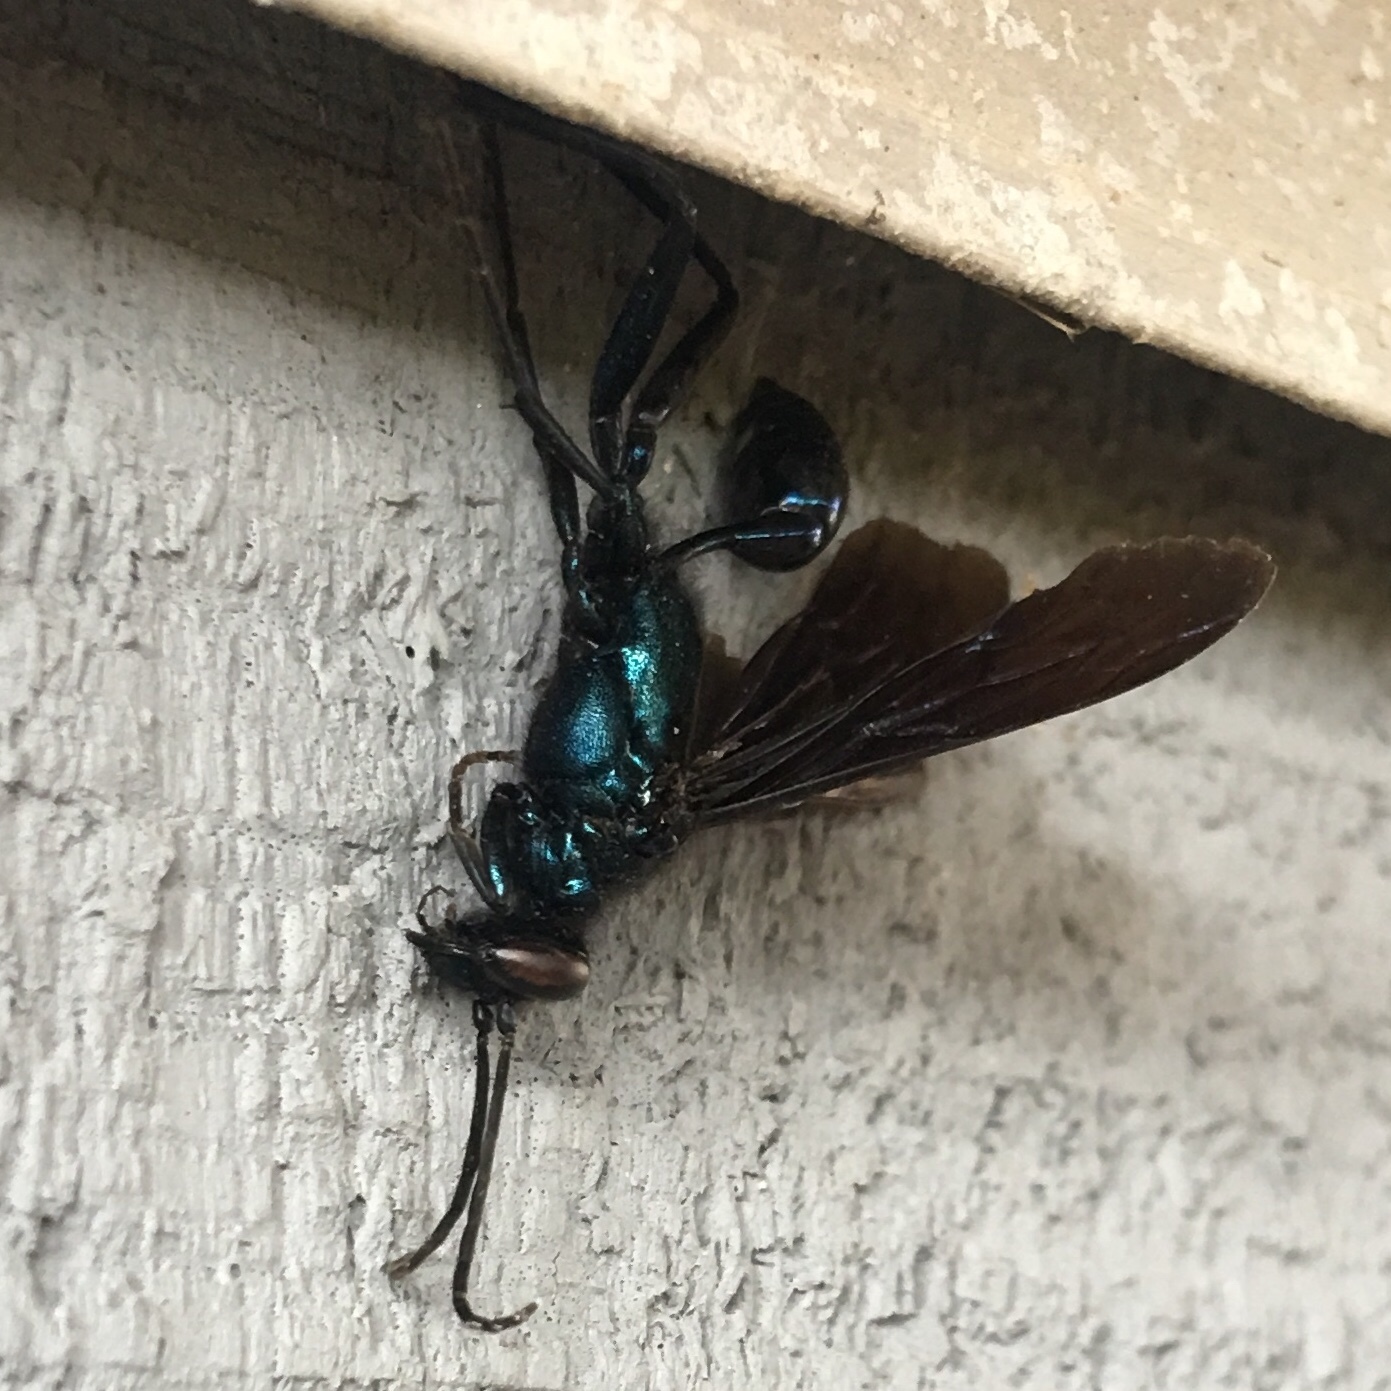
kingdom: Animalia
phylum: Arthropoda
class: Insecta
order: Hymenoptera
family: Sphecidae
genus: Chalybion
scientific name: Chalybion californicum
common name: Mud dauber
